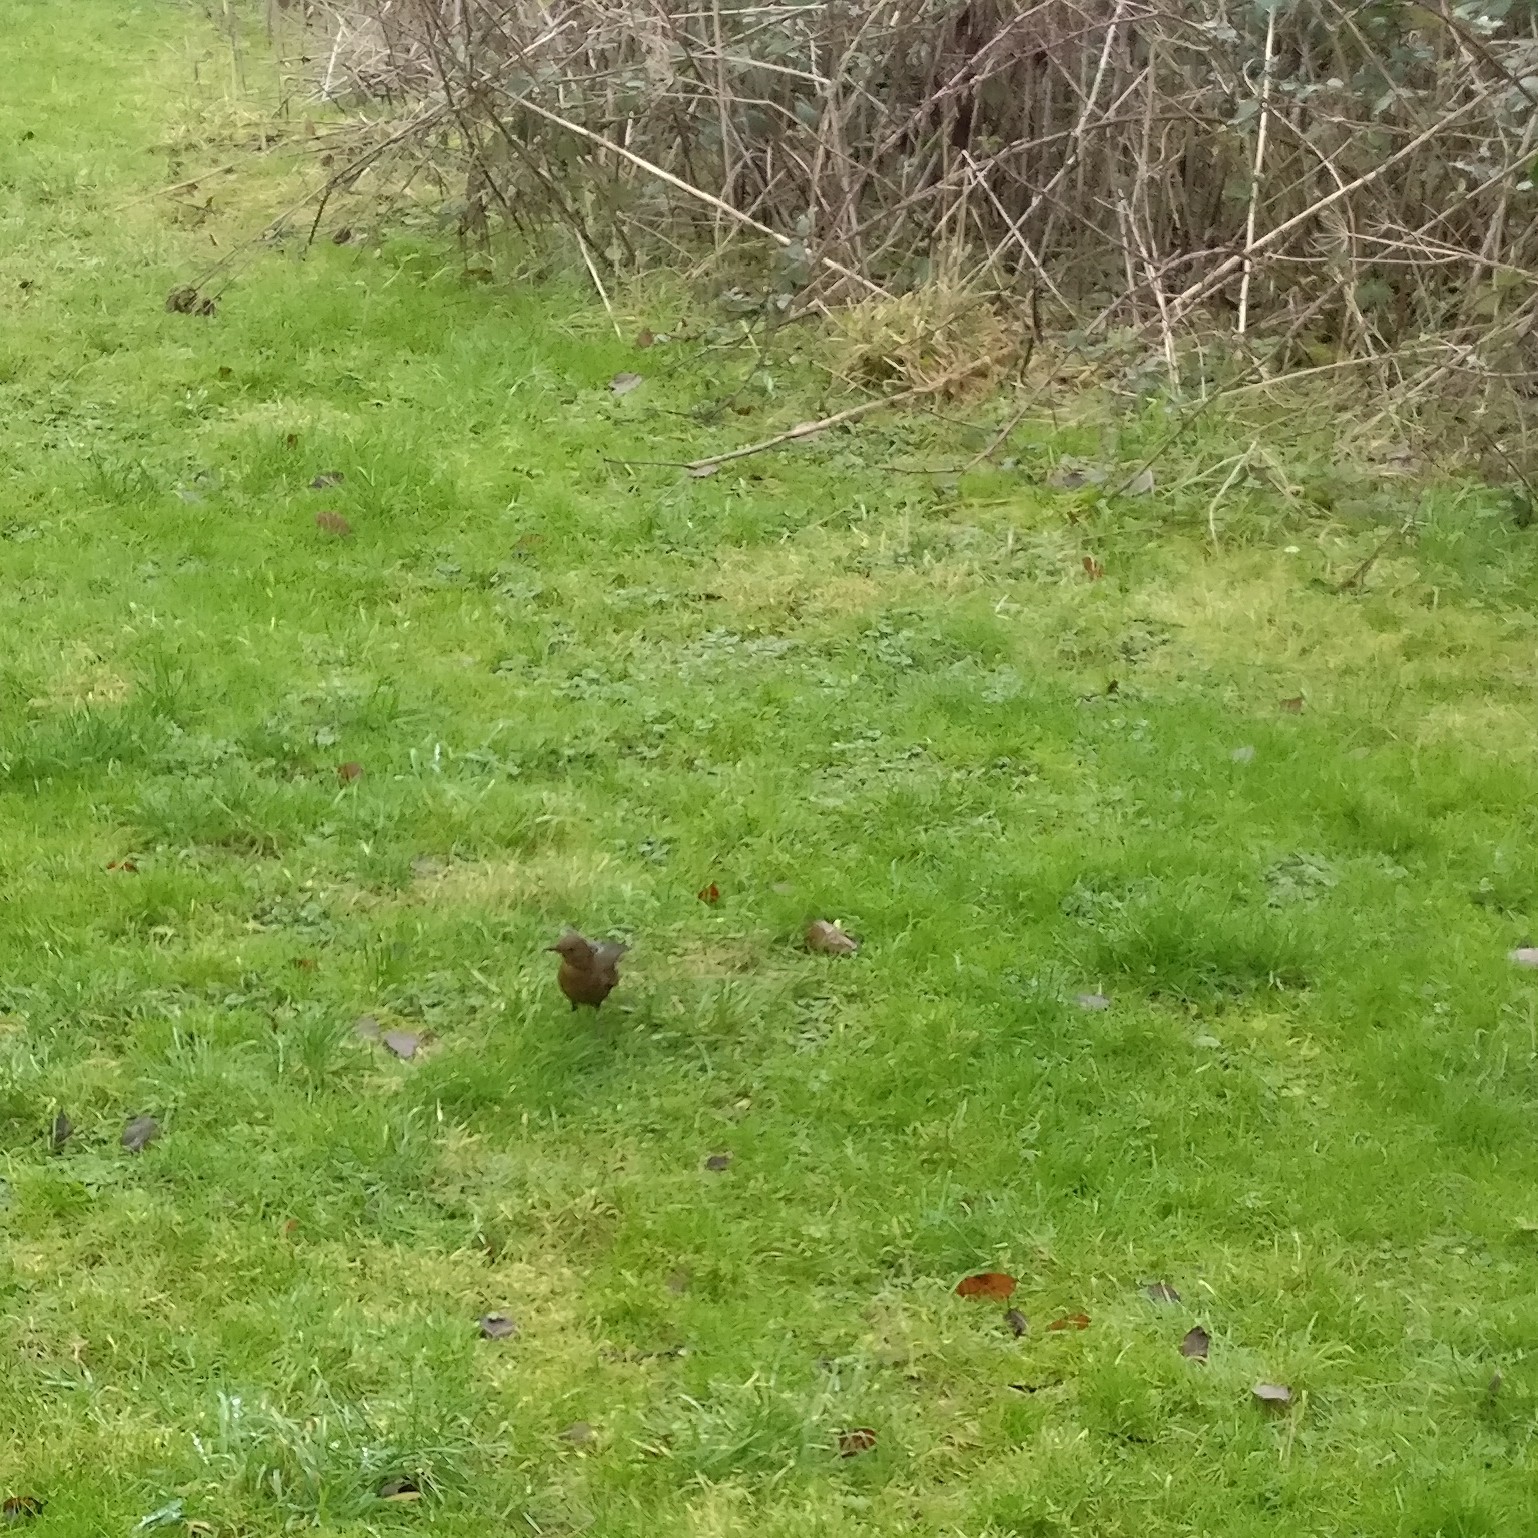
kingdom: Animalia
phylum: Chordata
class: Aves
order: Passeriformes
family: Turdidae
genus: Turdus
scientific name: Turdus merula
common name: Common blackbird
